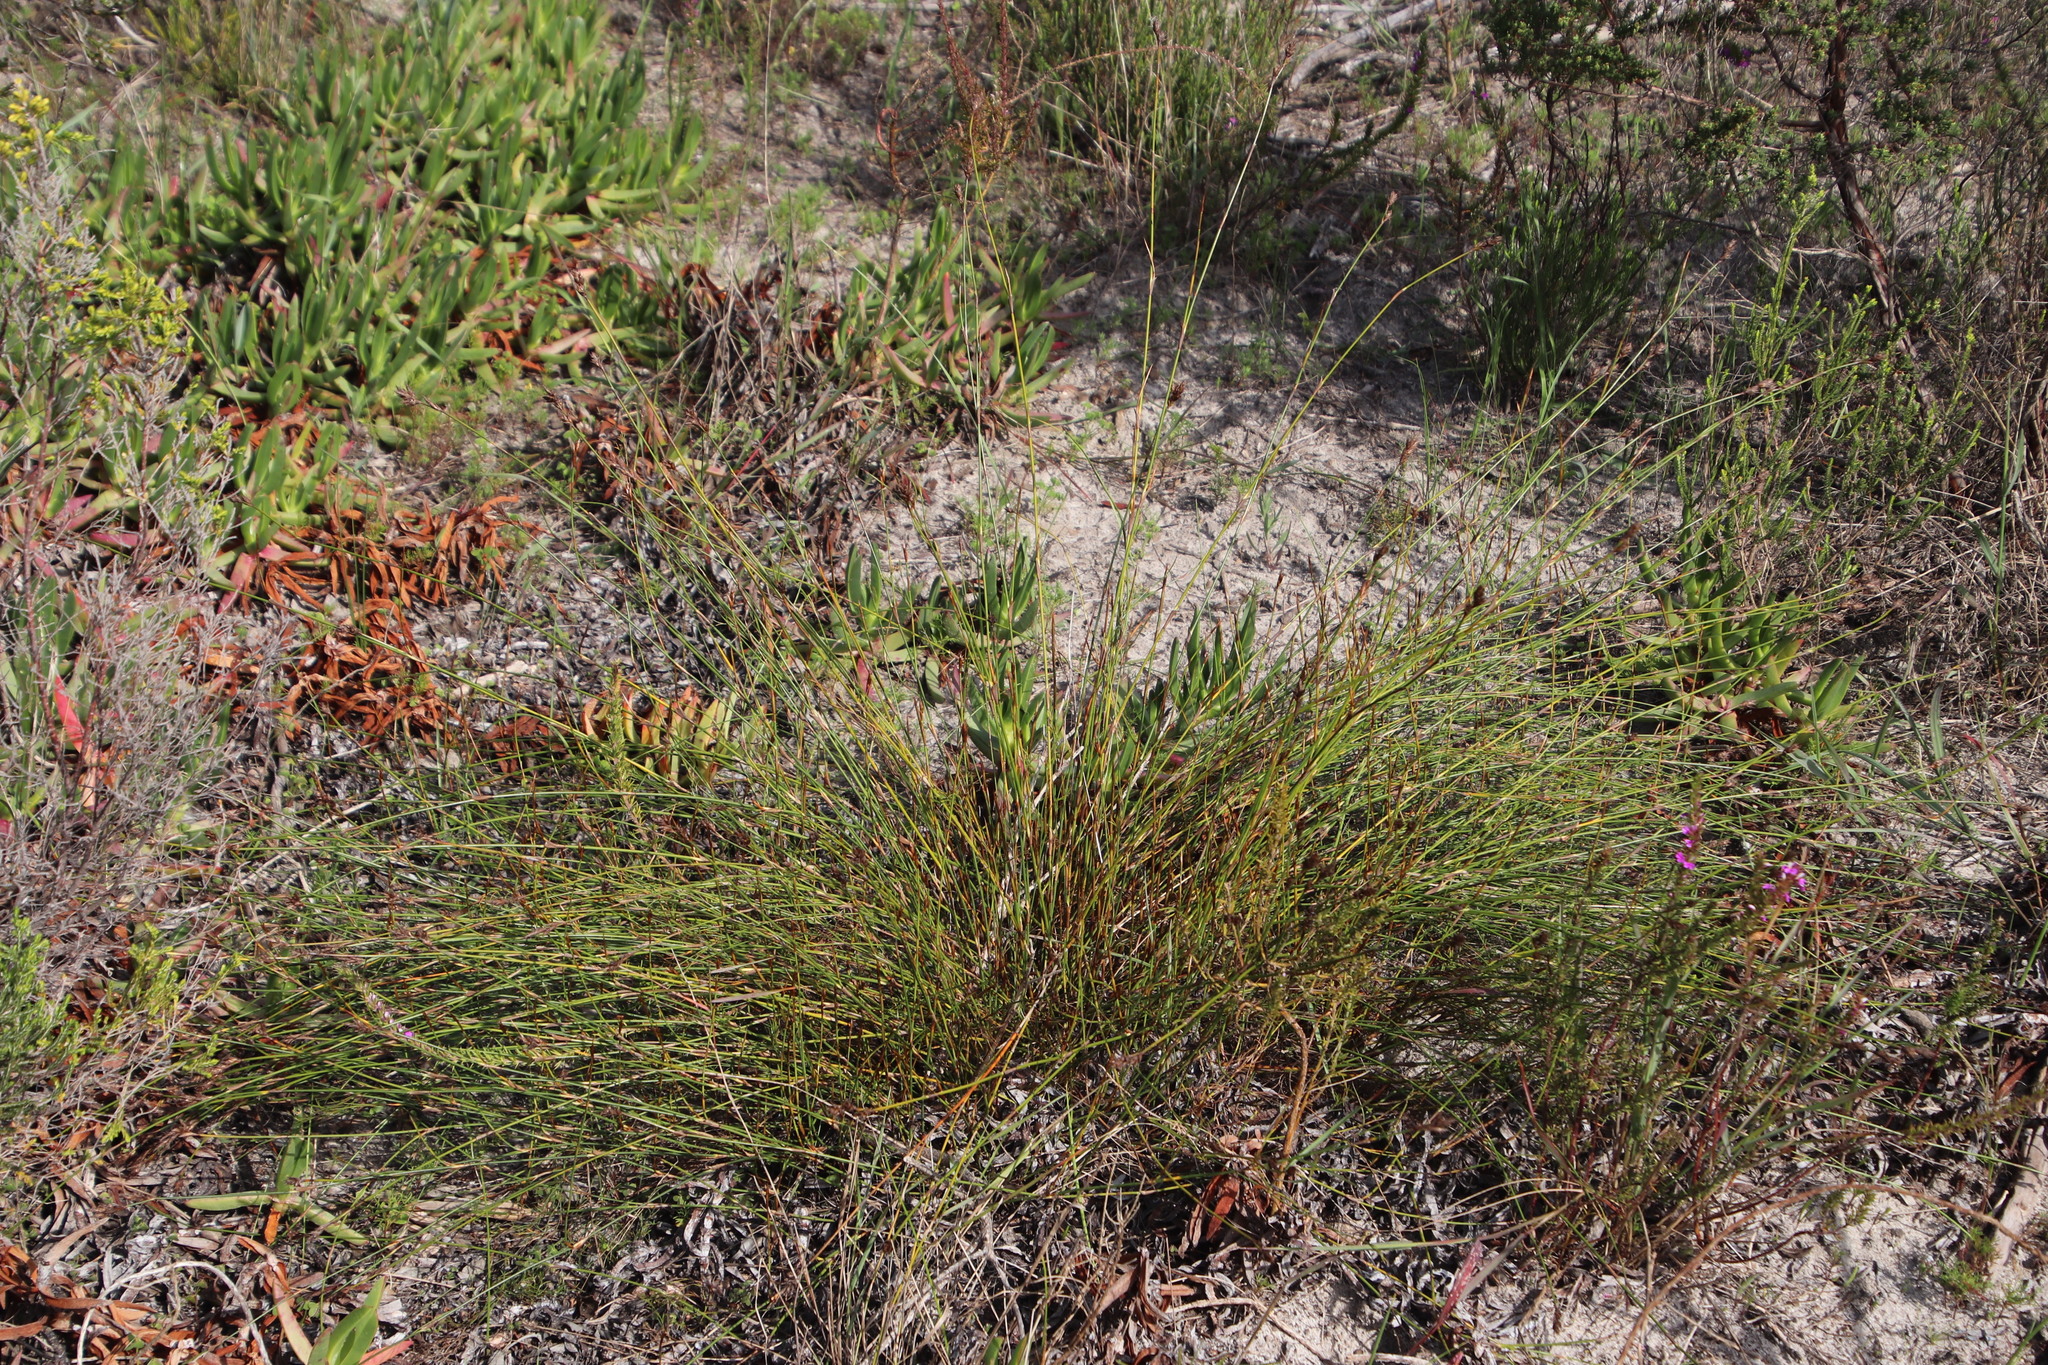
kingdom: Plantae
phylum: Tracheophyta
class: Liliopsida
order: Poales
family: Restionaceae
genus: Restio
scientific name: Restio capensis
